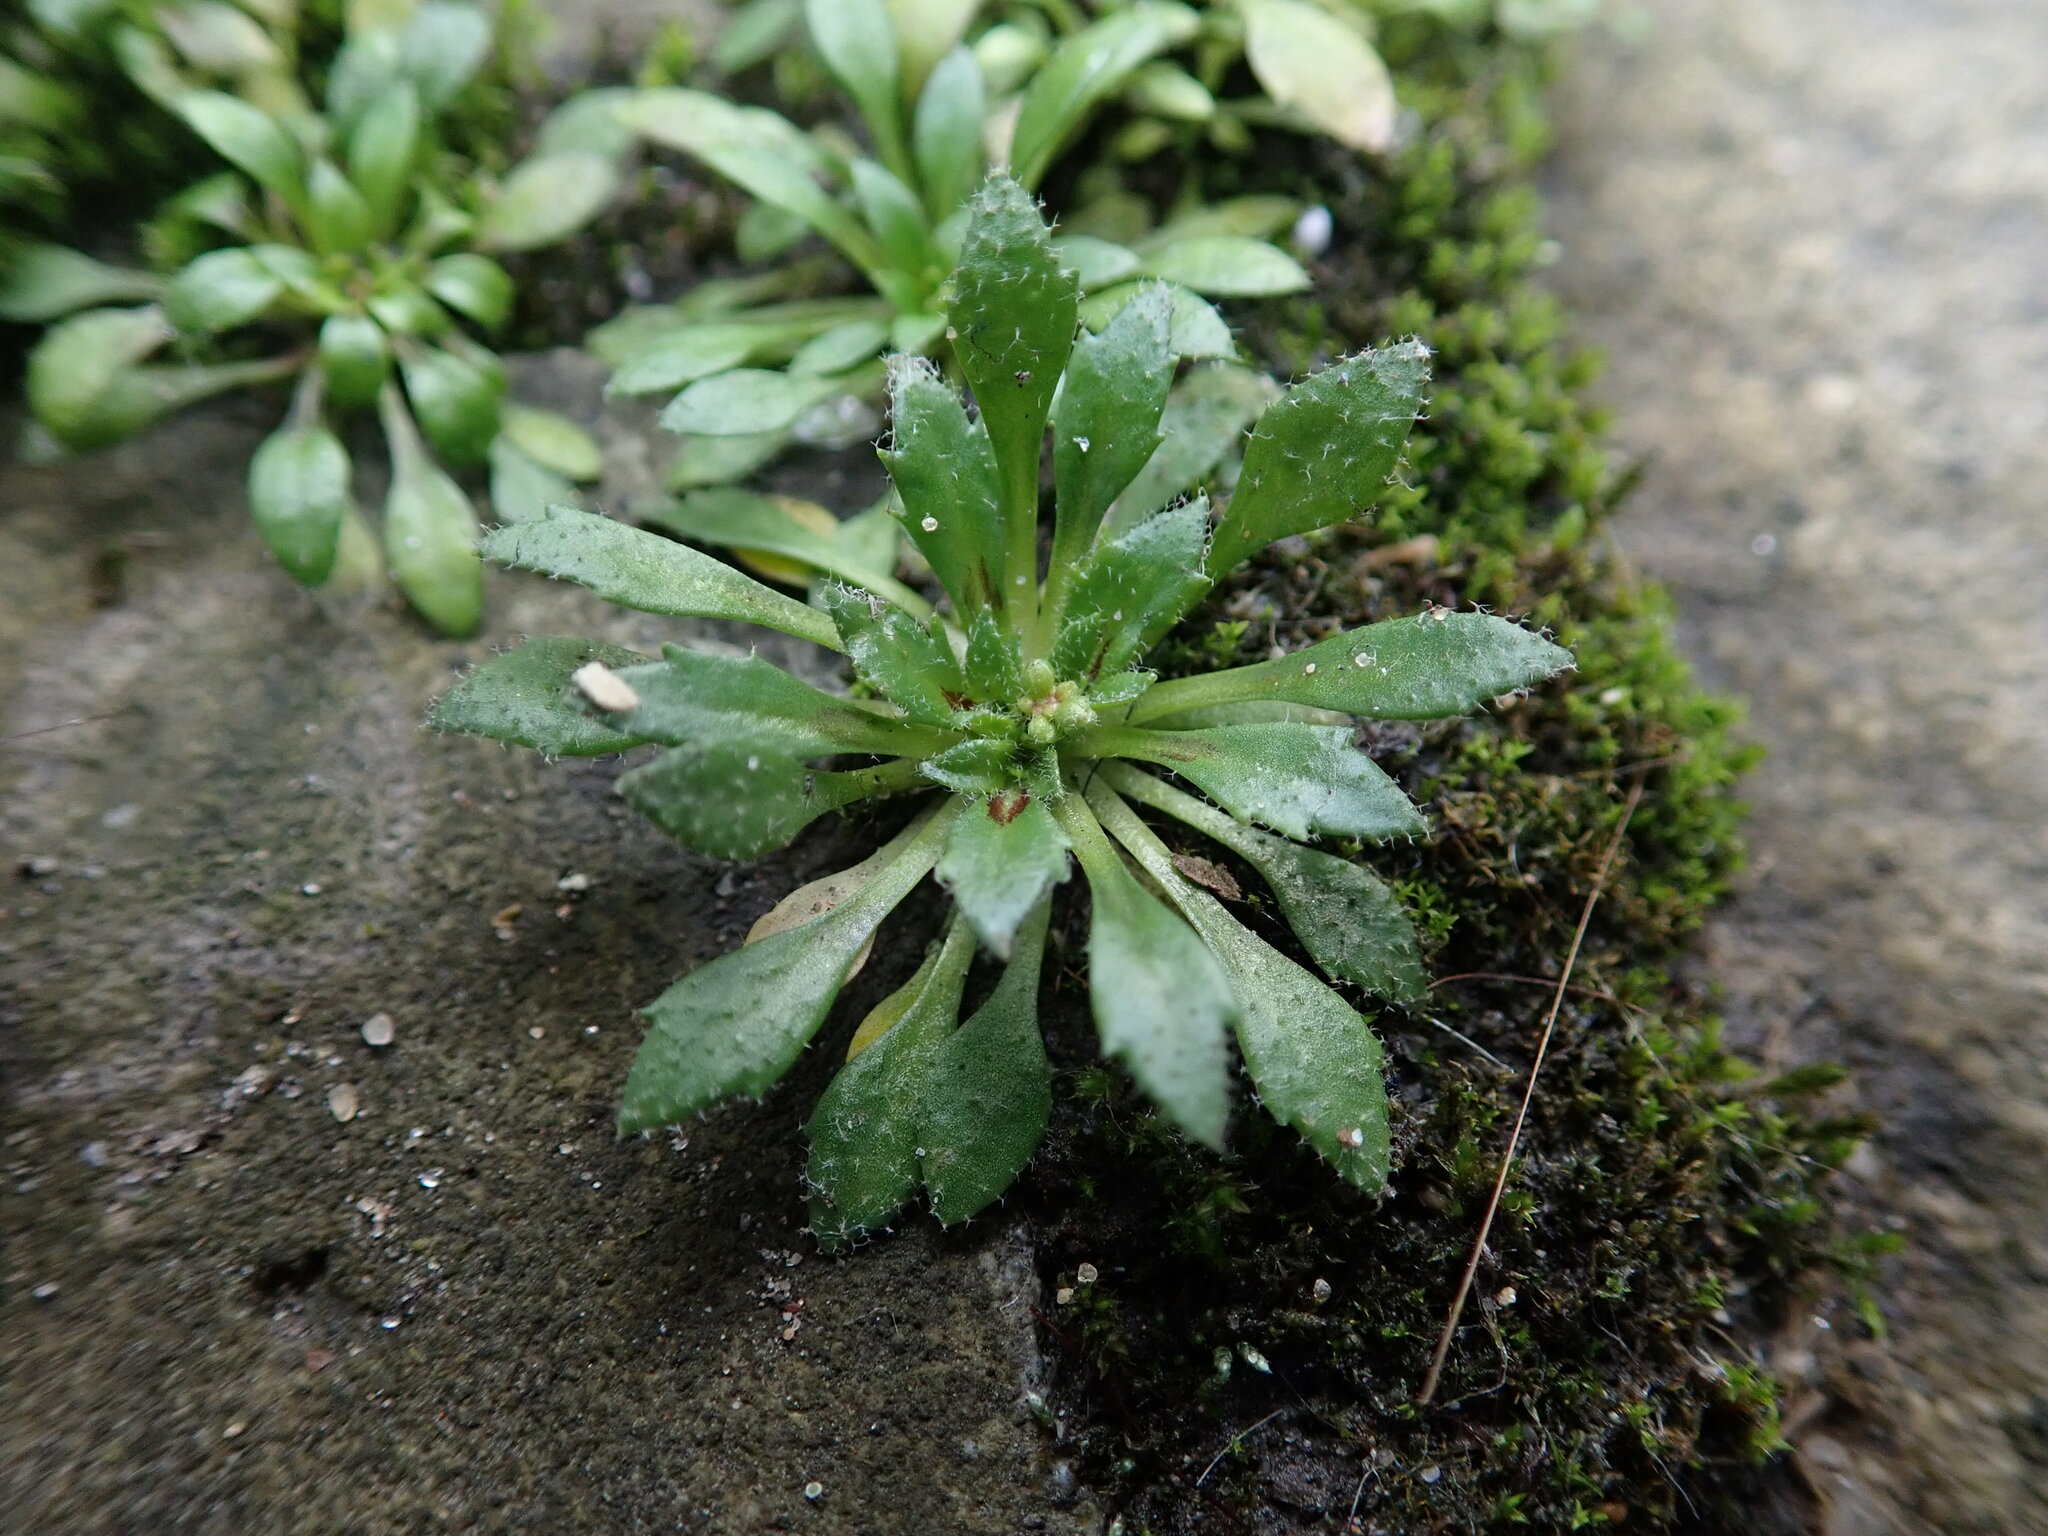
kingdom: Plantae
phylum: Tracheophyta
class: Magnoliopsida
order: Brassicales
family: Brassicaceae
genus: Draba
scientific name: Draba verna
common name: Spring draba
